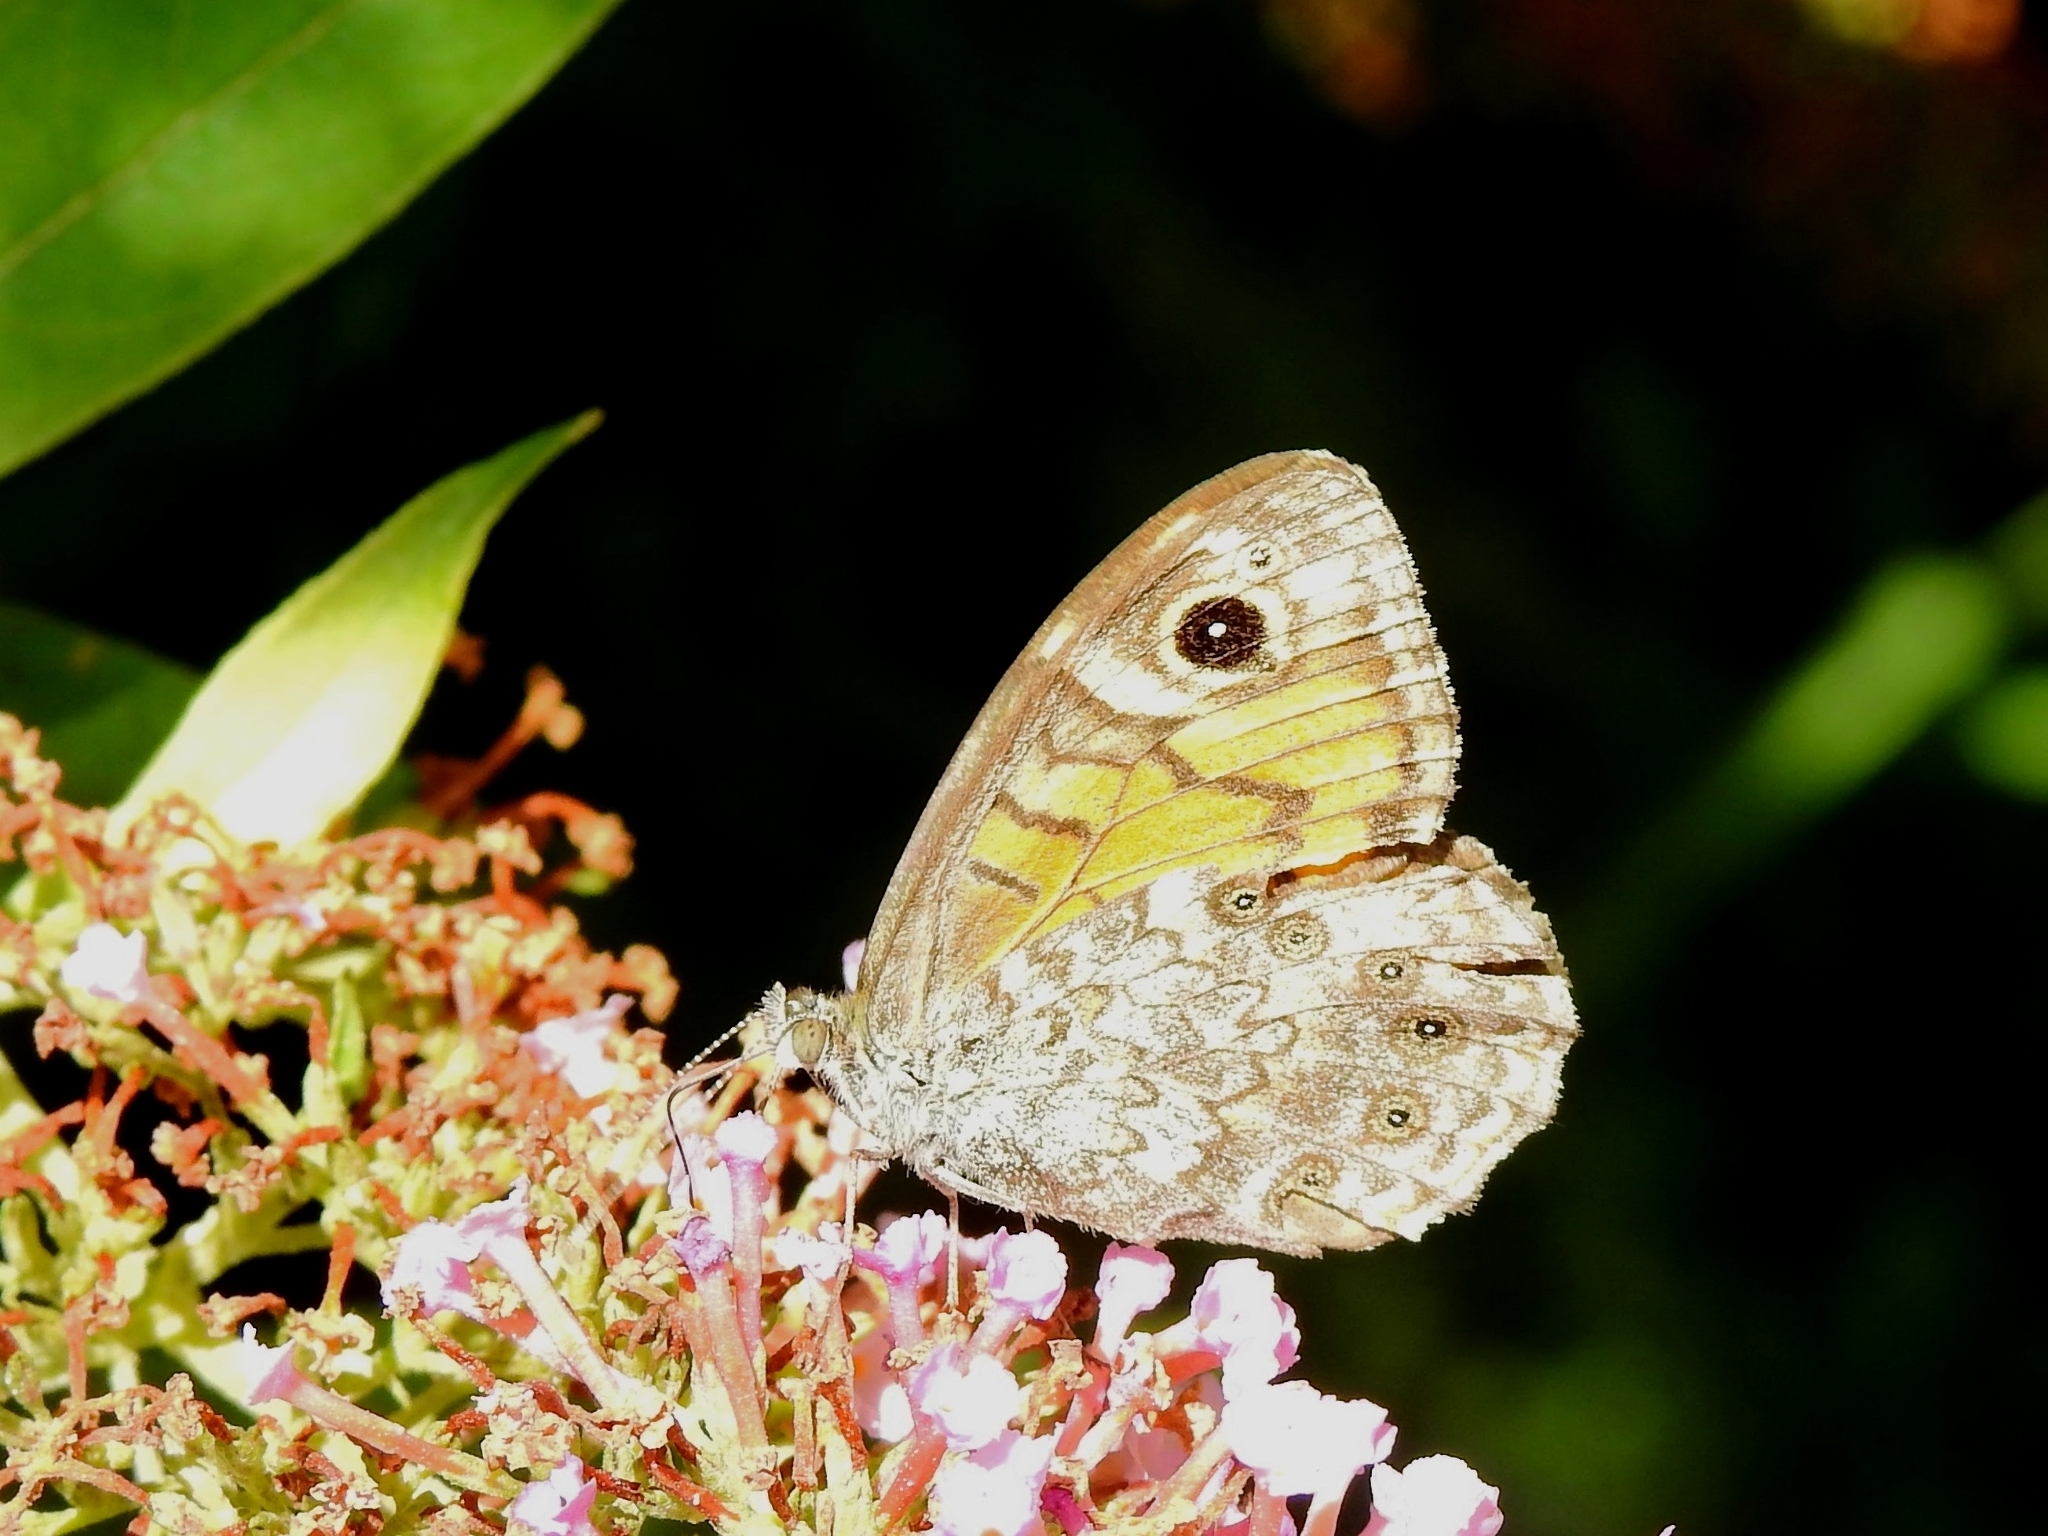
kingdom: Animalia
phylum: Arthropoda
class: Insecta
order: Lepidoptera
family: Nymphalidae
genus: Pararge
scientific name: Pararge Lasiommata megera
